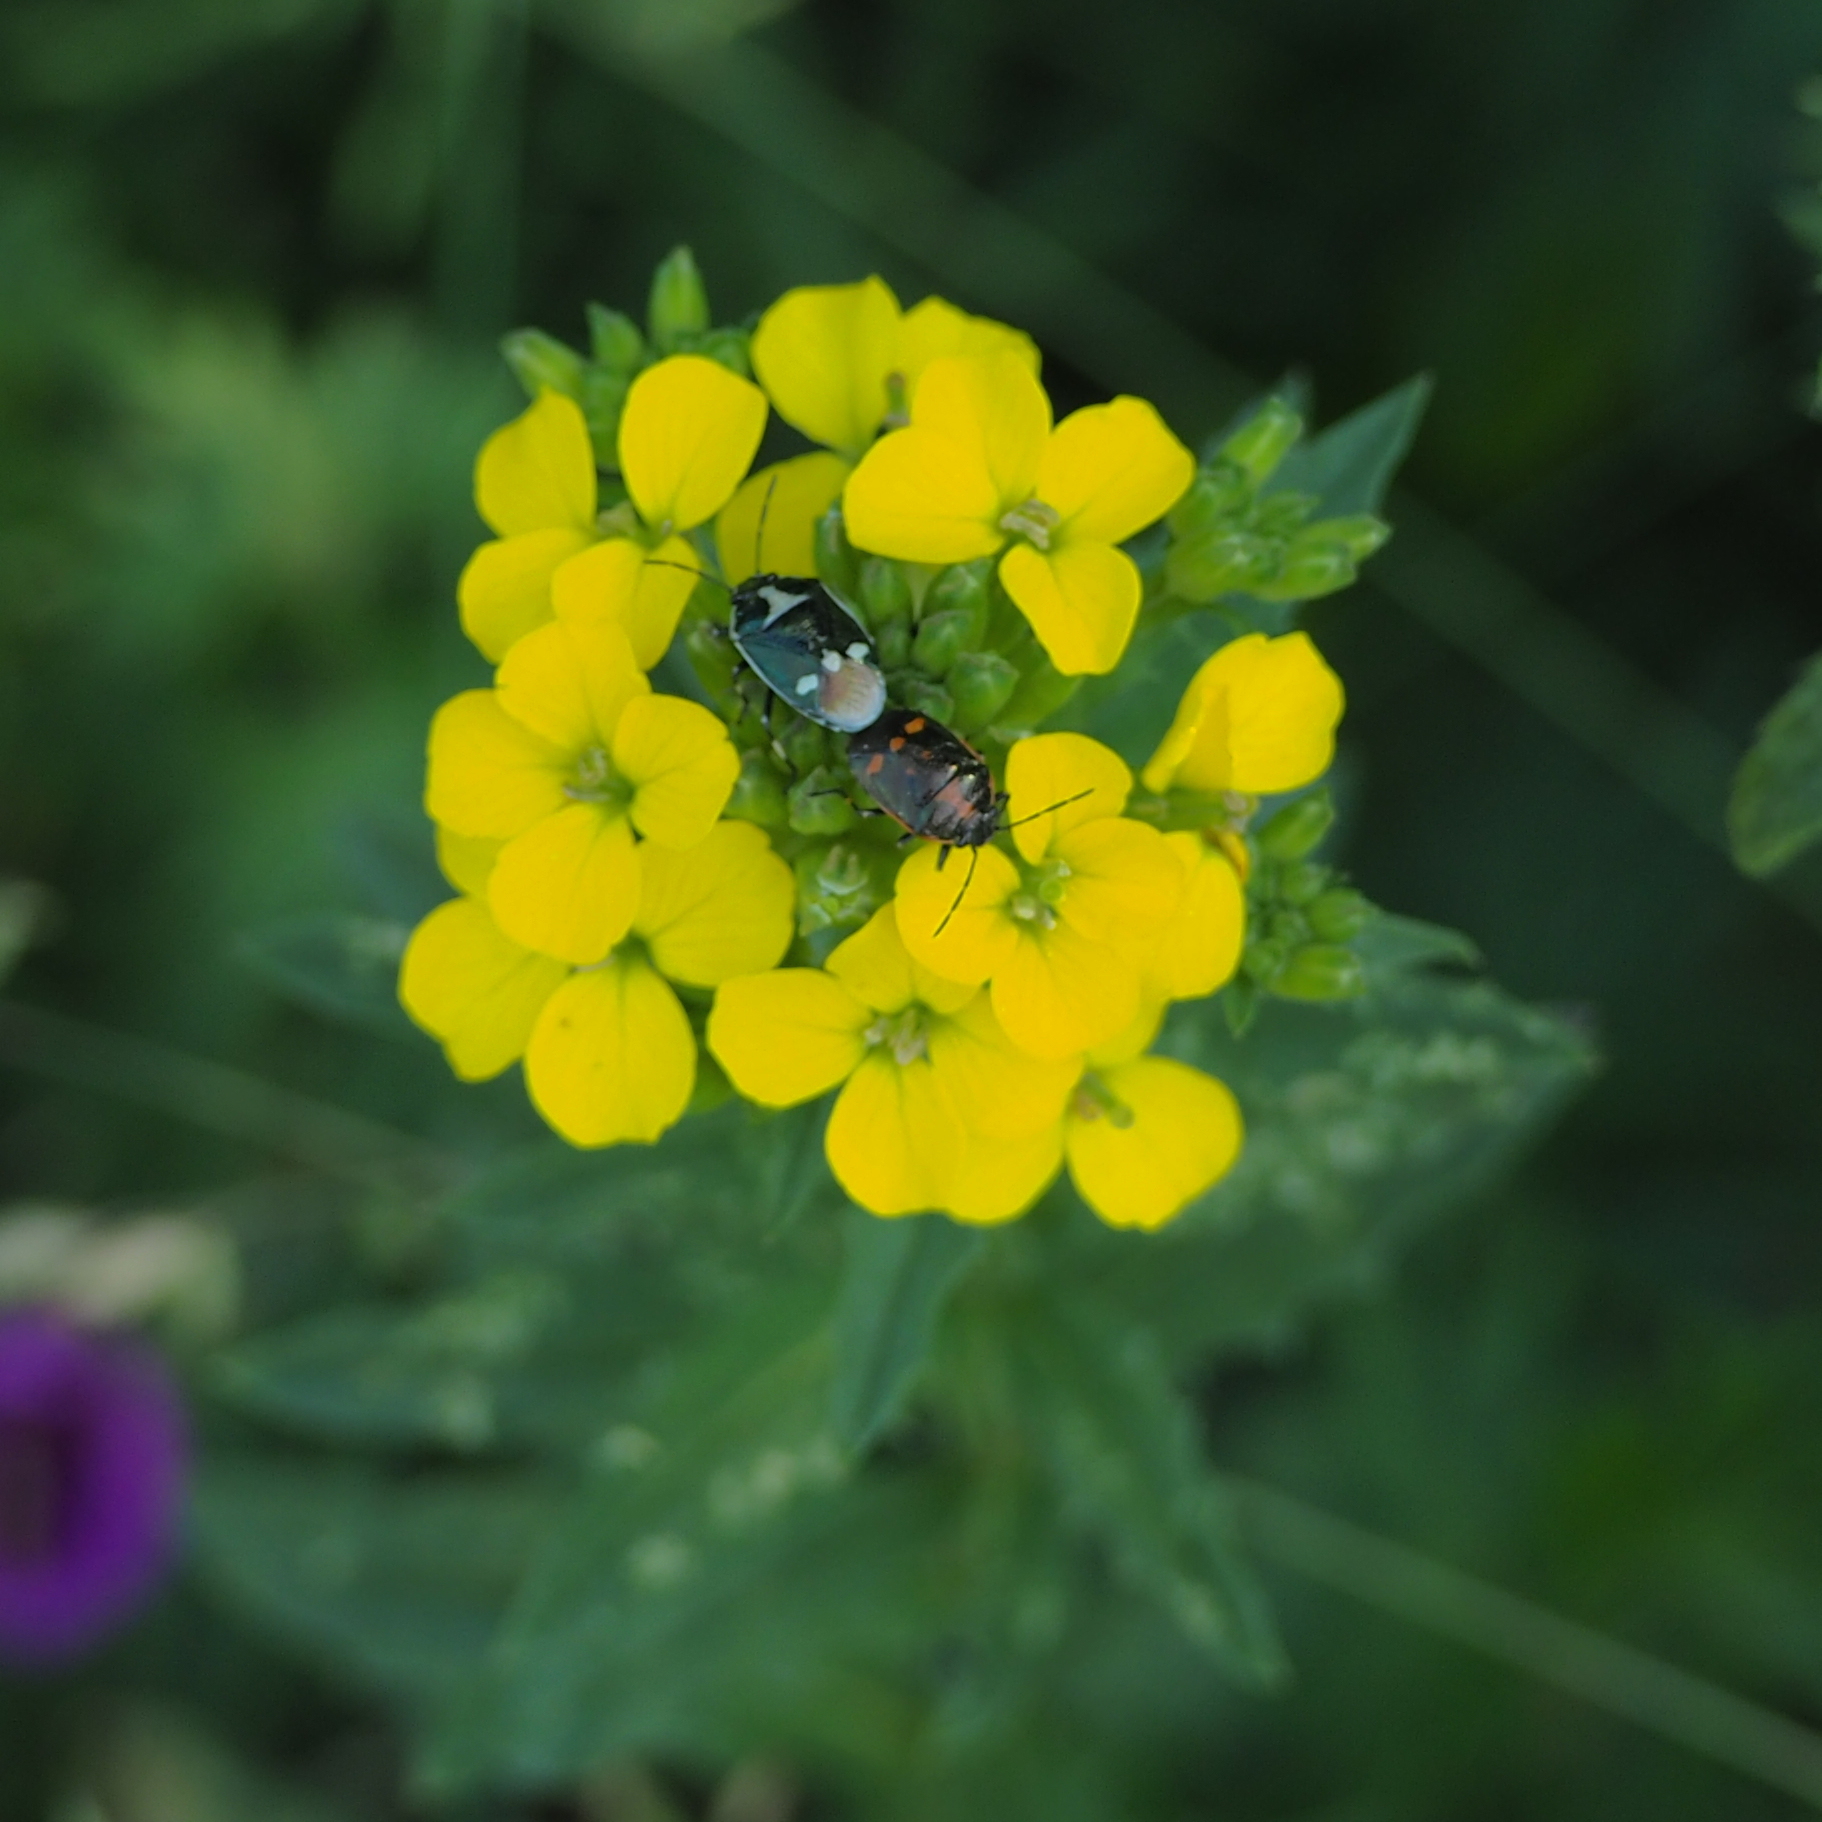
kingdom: Animalia
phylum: Arthropoda
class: Insecta
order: Hemiptera
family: Pentatomidae
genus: Eurydema
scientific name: Eurydema oleracea
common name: Cabbage bug
